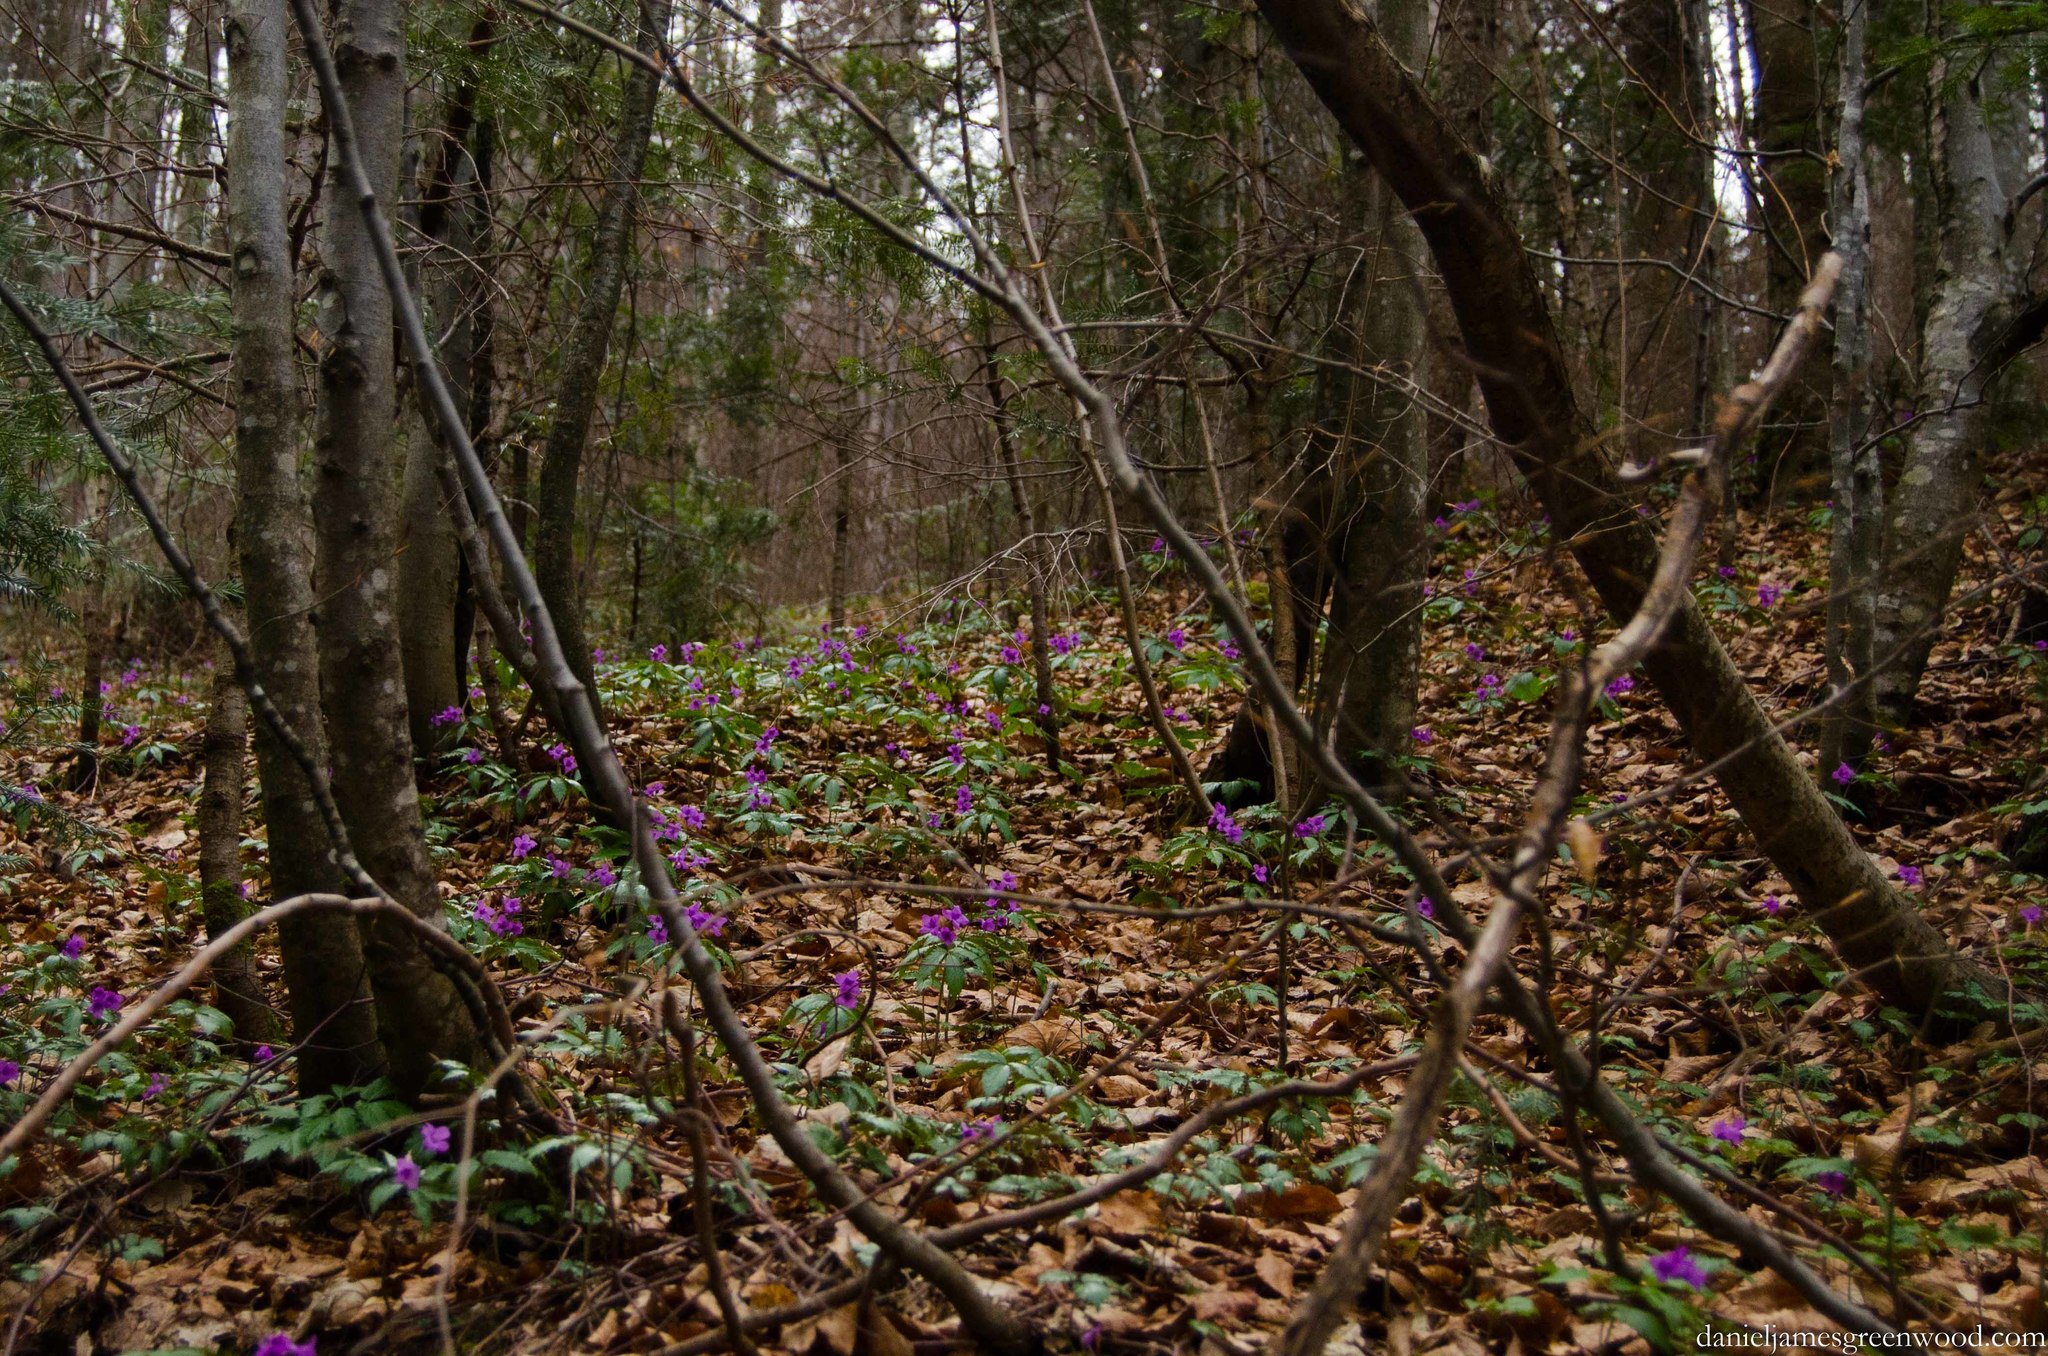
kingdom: Plantae
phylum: Tracheophyta
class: Magnoliopsida
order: Brassicales
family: Brassicaceae
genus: Cardamine
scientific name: Cardamine glanduligera
